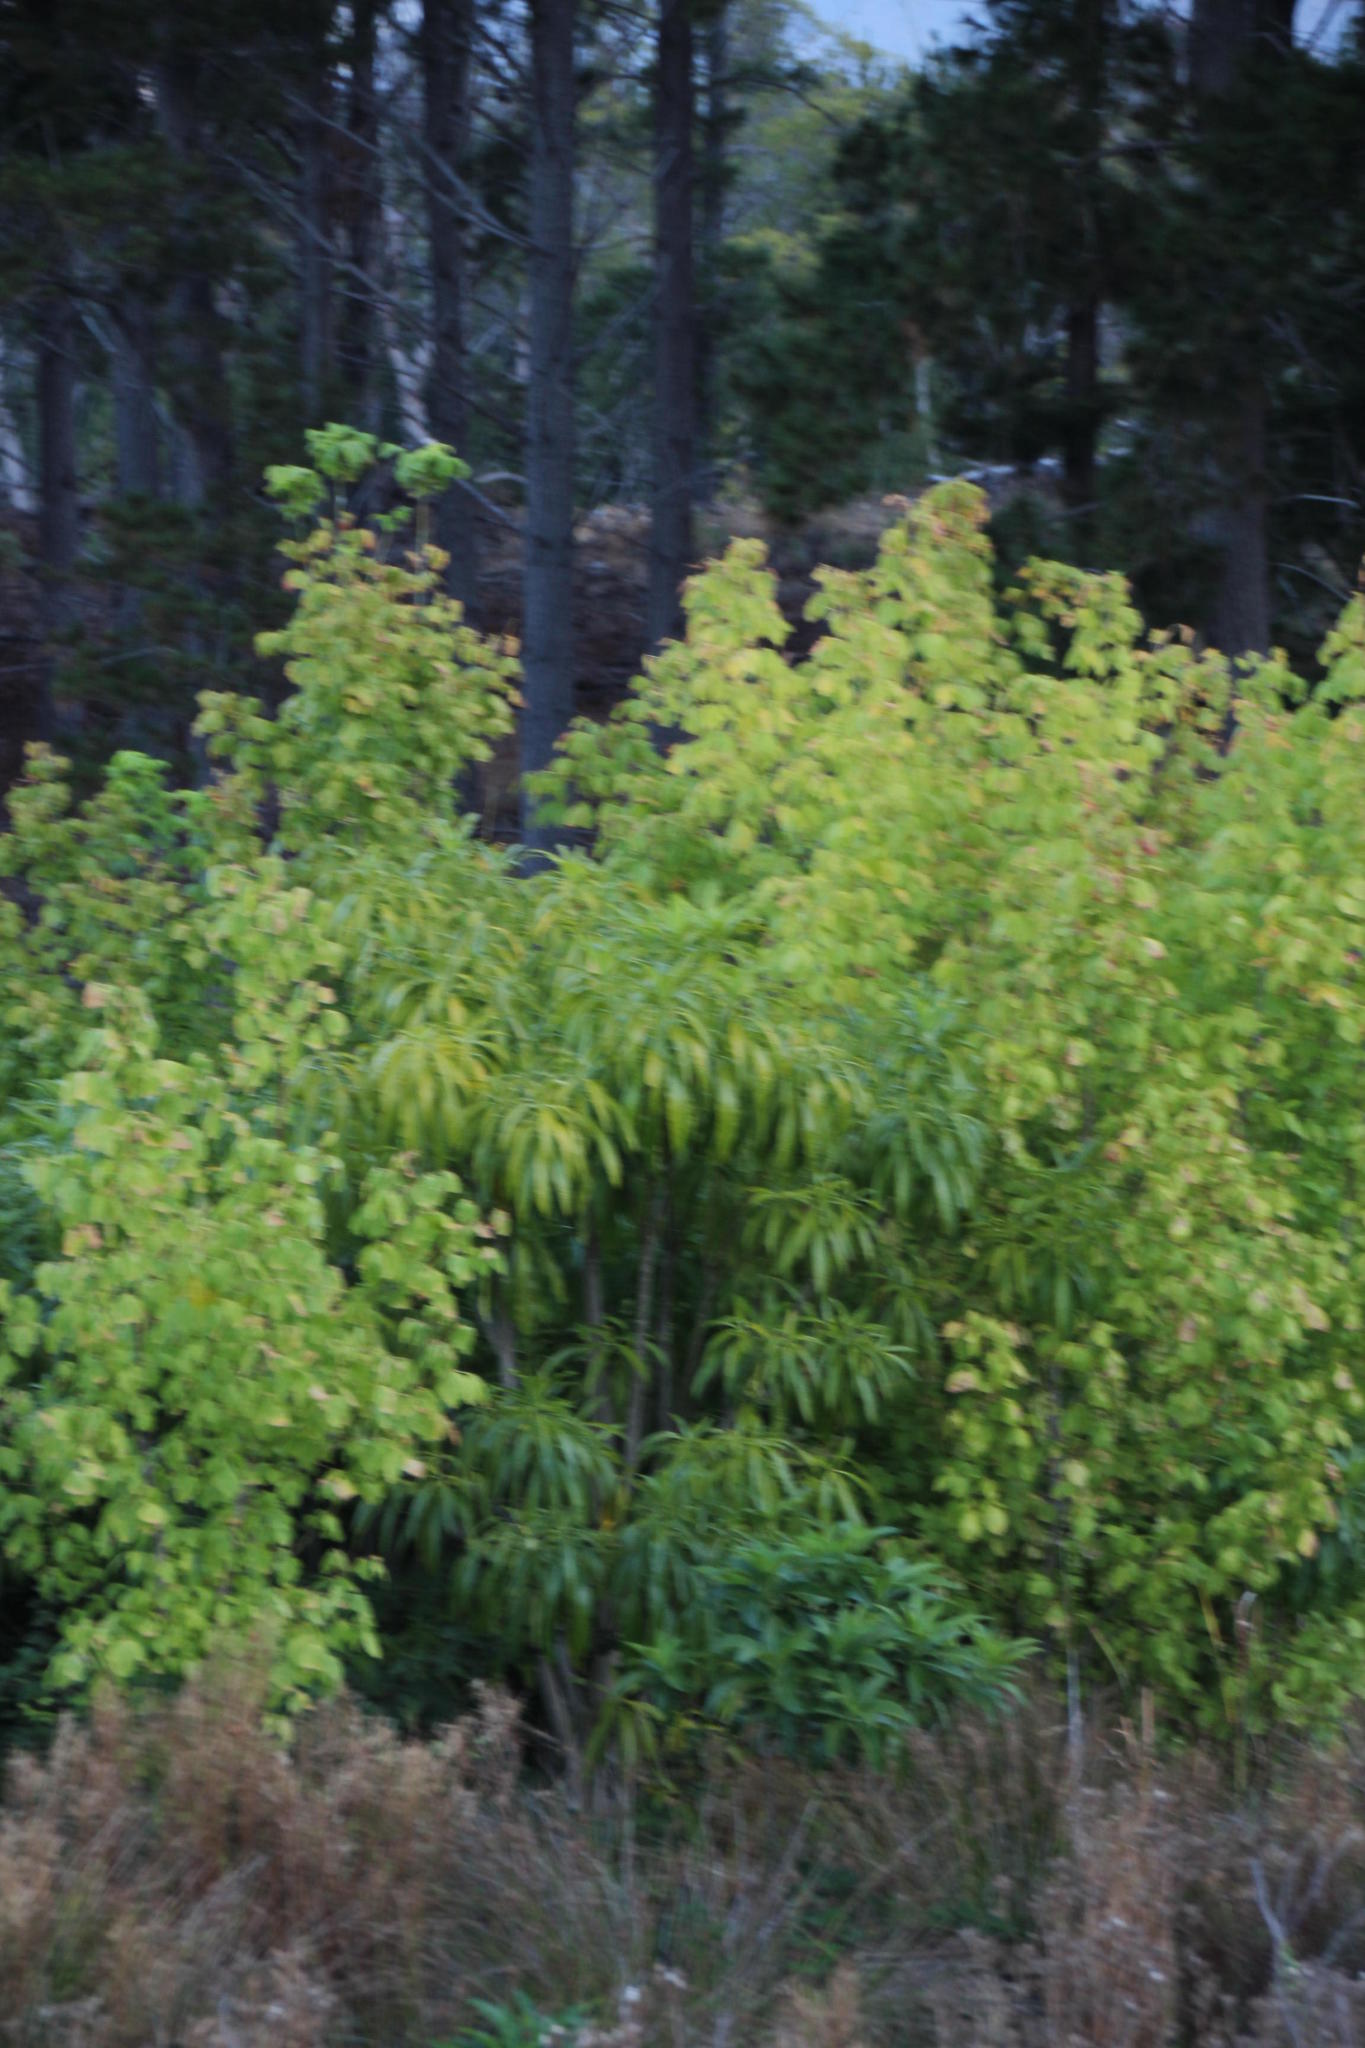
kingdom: Plantae
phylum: Tracheophyta
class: Magnoliopsida
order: Gentianales
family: Apocynaceae
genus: Rauvolfia
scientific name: Rauvolfia caffra
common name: Quininetree
